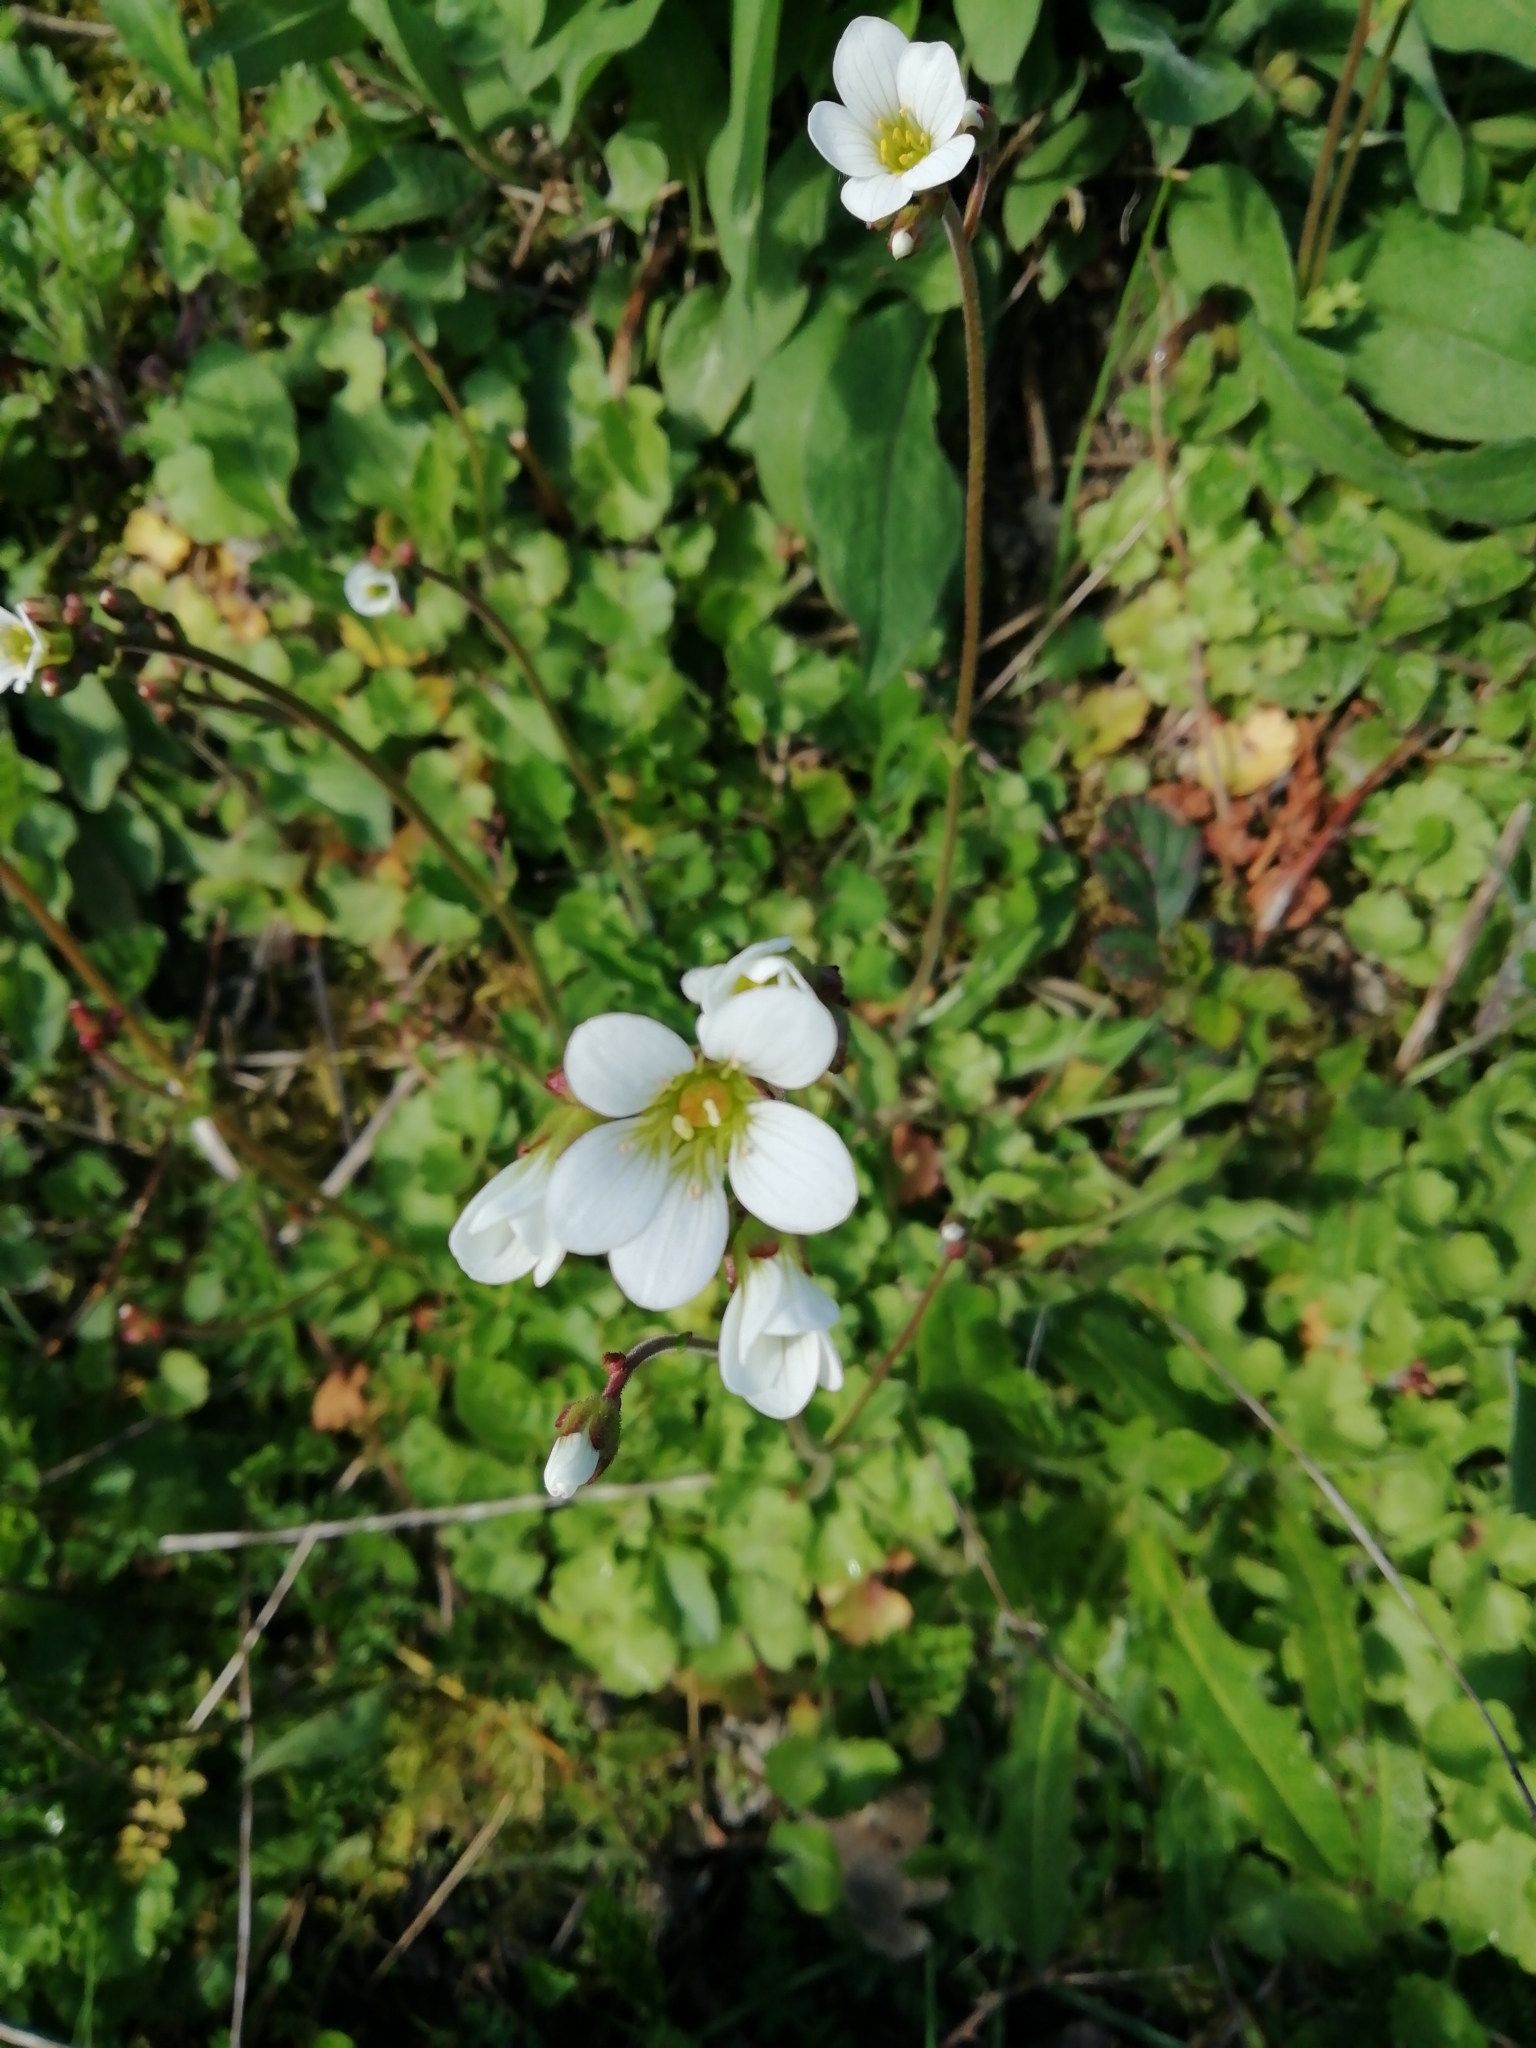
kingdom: Plantae
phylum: Tracheophyta
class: Magnoliopsida
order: Saxifragales
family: Saxifragaceae
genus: Saxifraga
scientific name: Saxifraga granulata
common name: Meadow saxifrage
